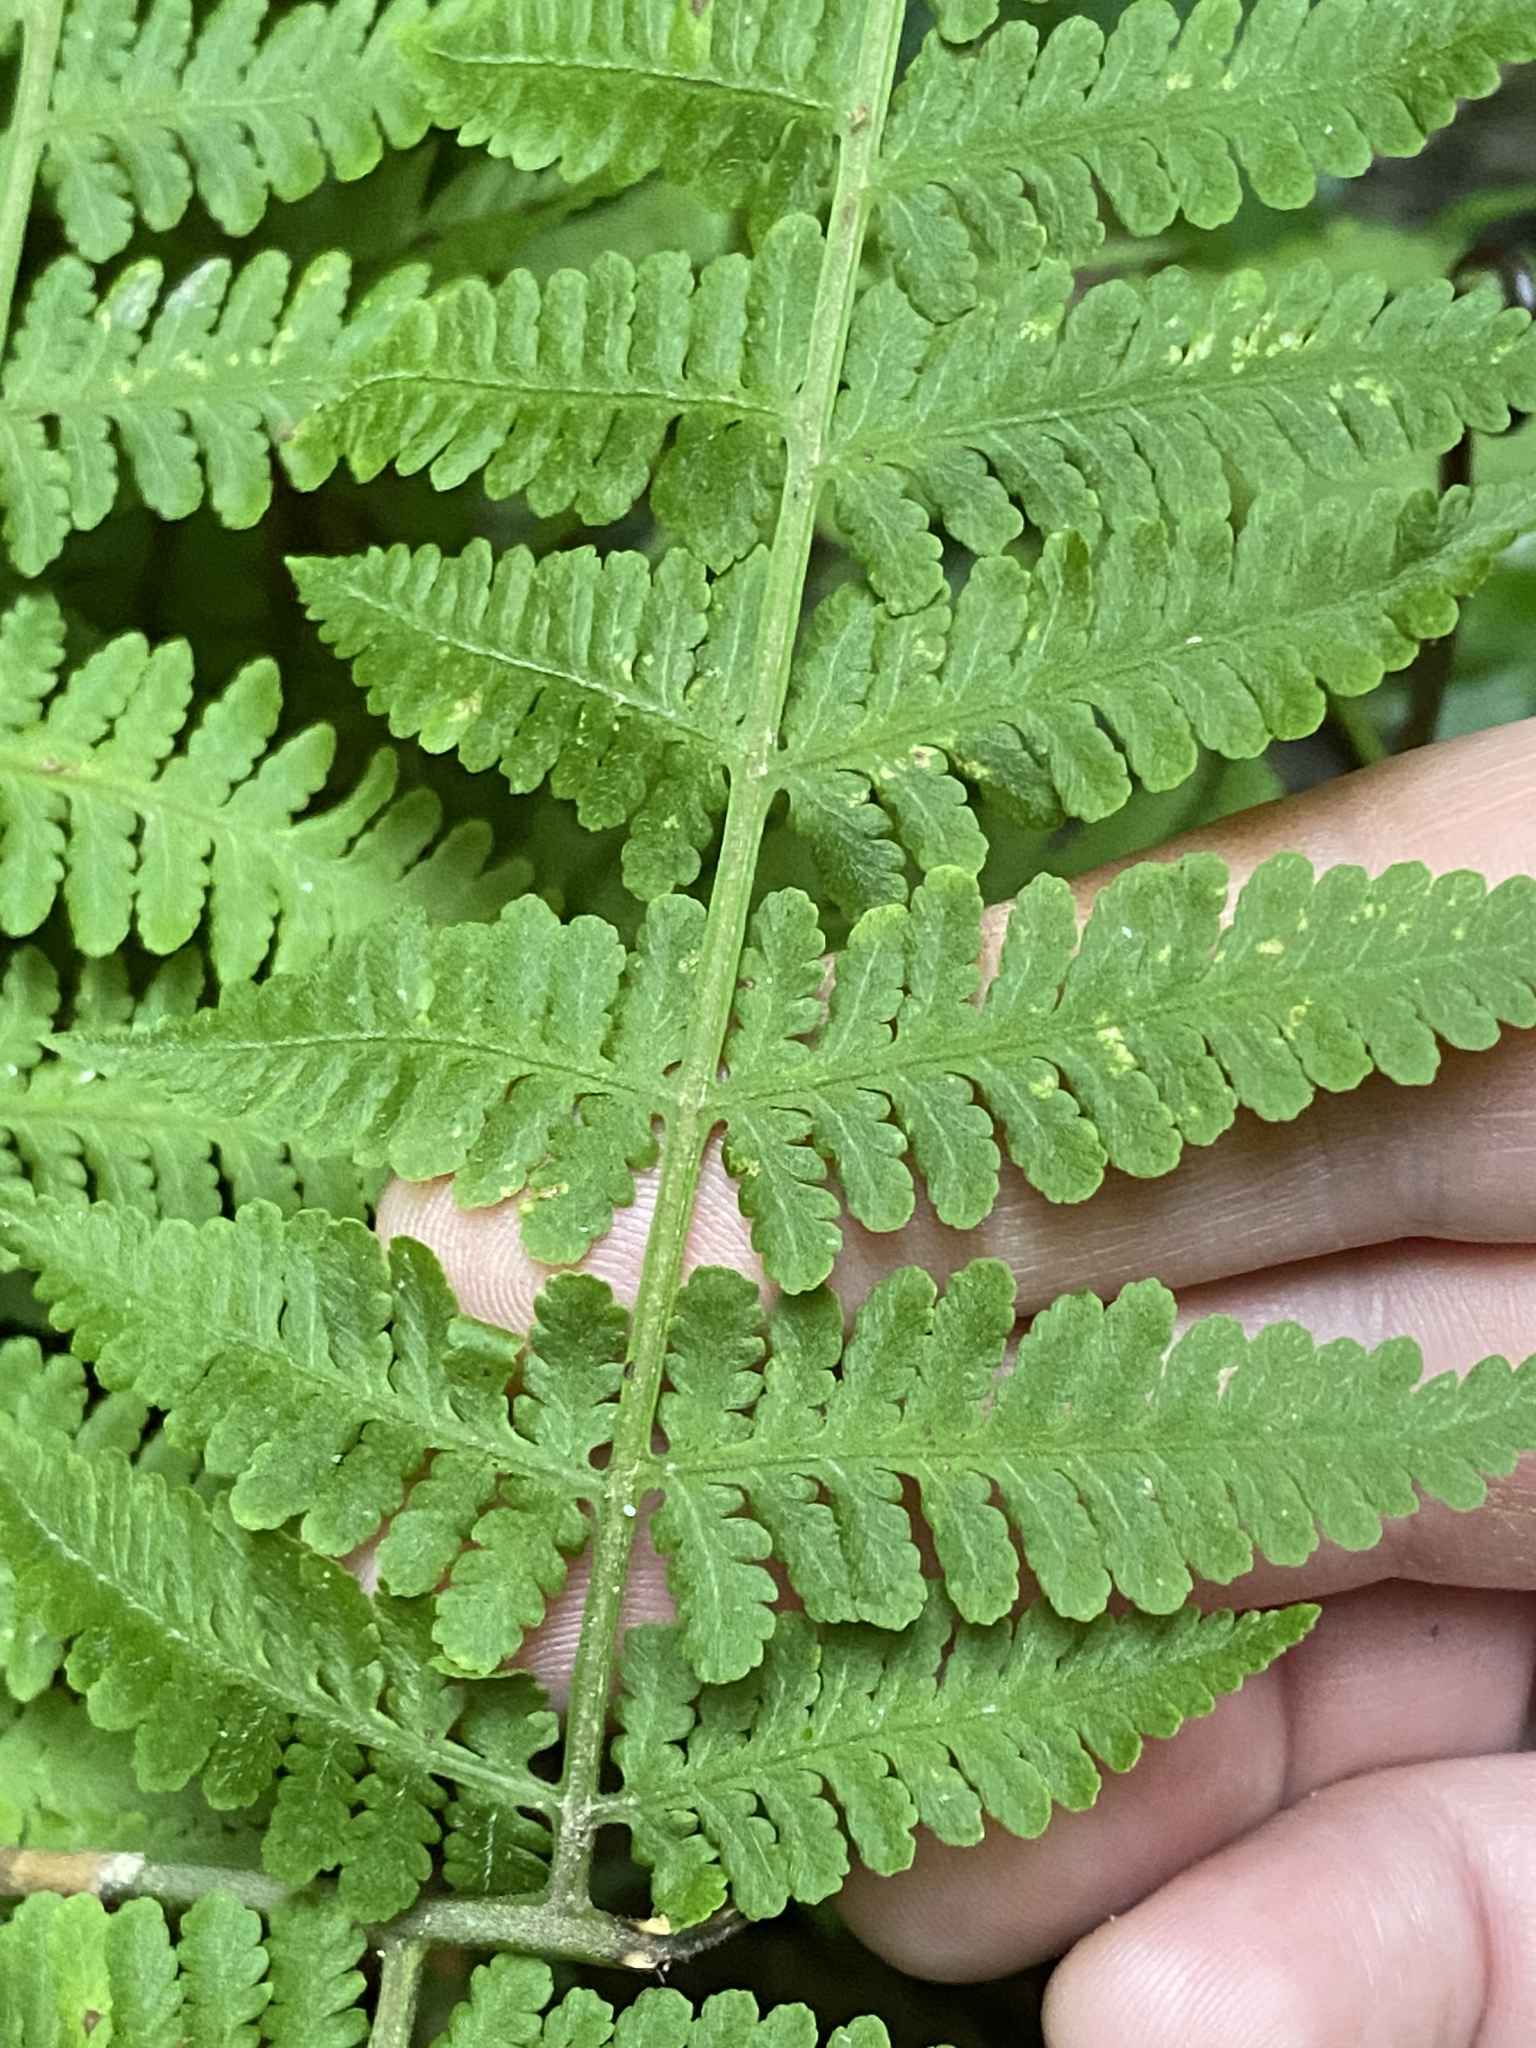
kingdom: Plantae
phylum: Tracheophyta
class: Polypodiopsida
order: Polypodiales
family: Thelypteridaceae
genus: Macrothelypteris
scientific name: Macrothelypteris torresiana
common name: Swordfern
